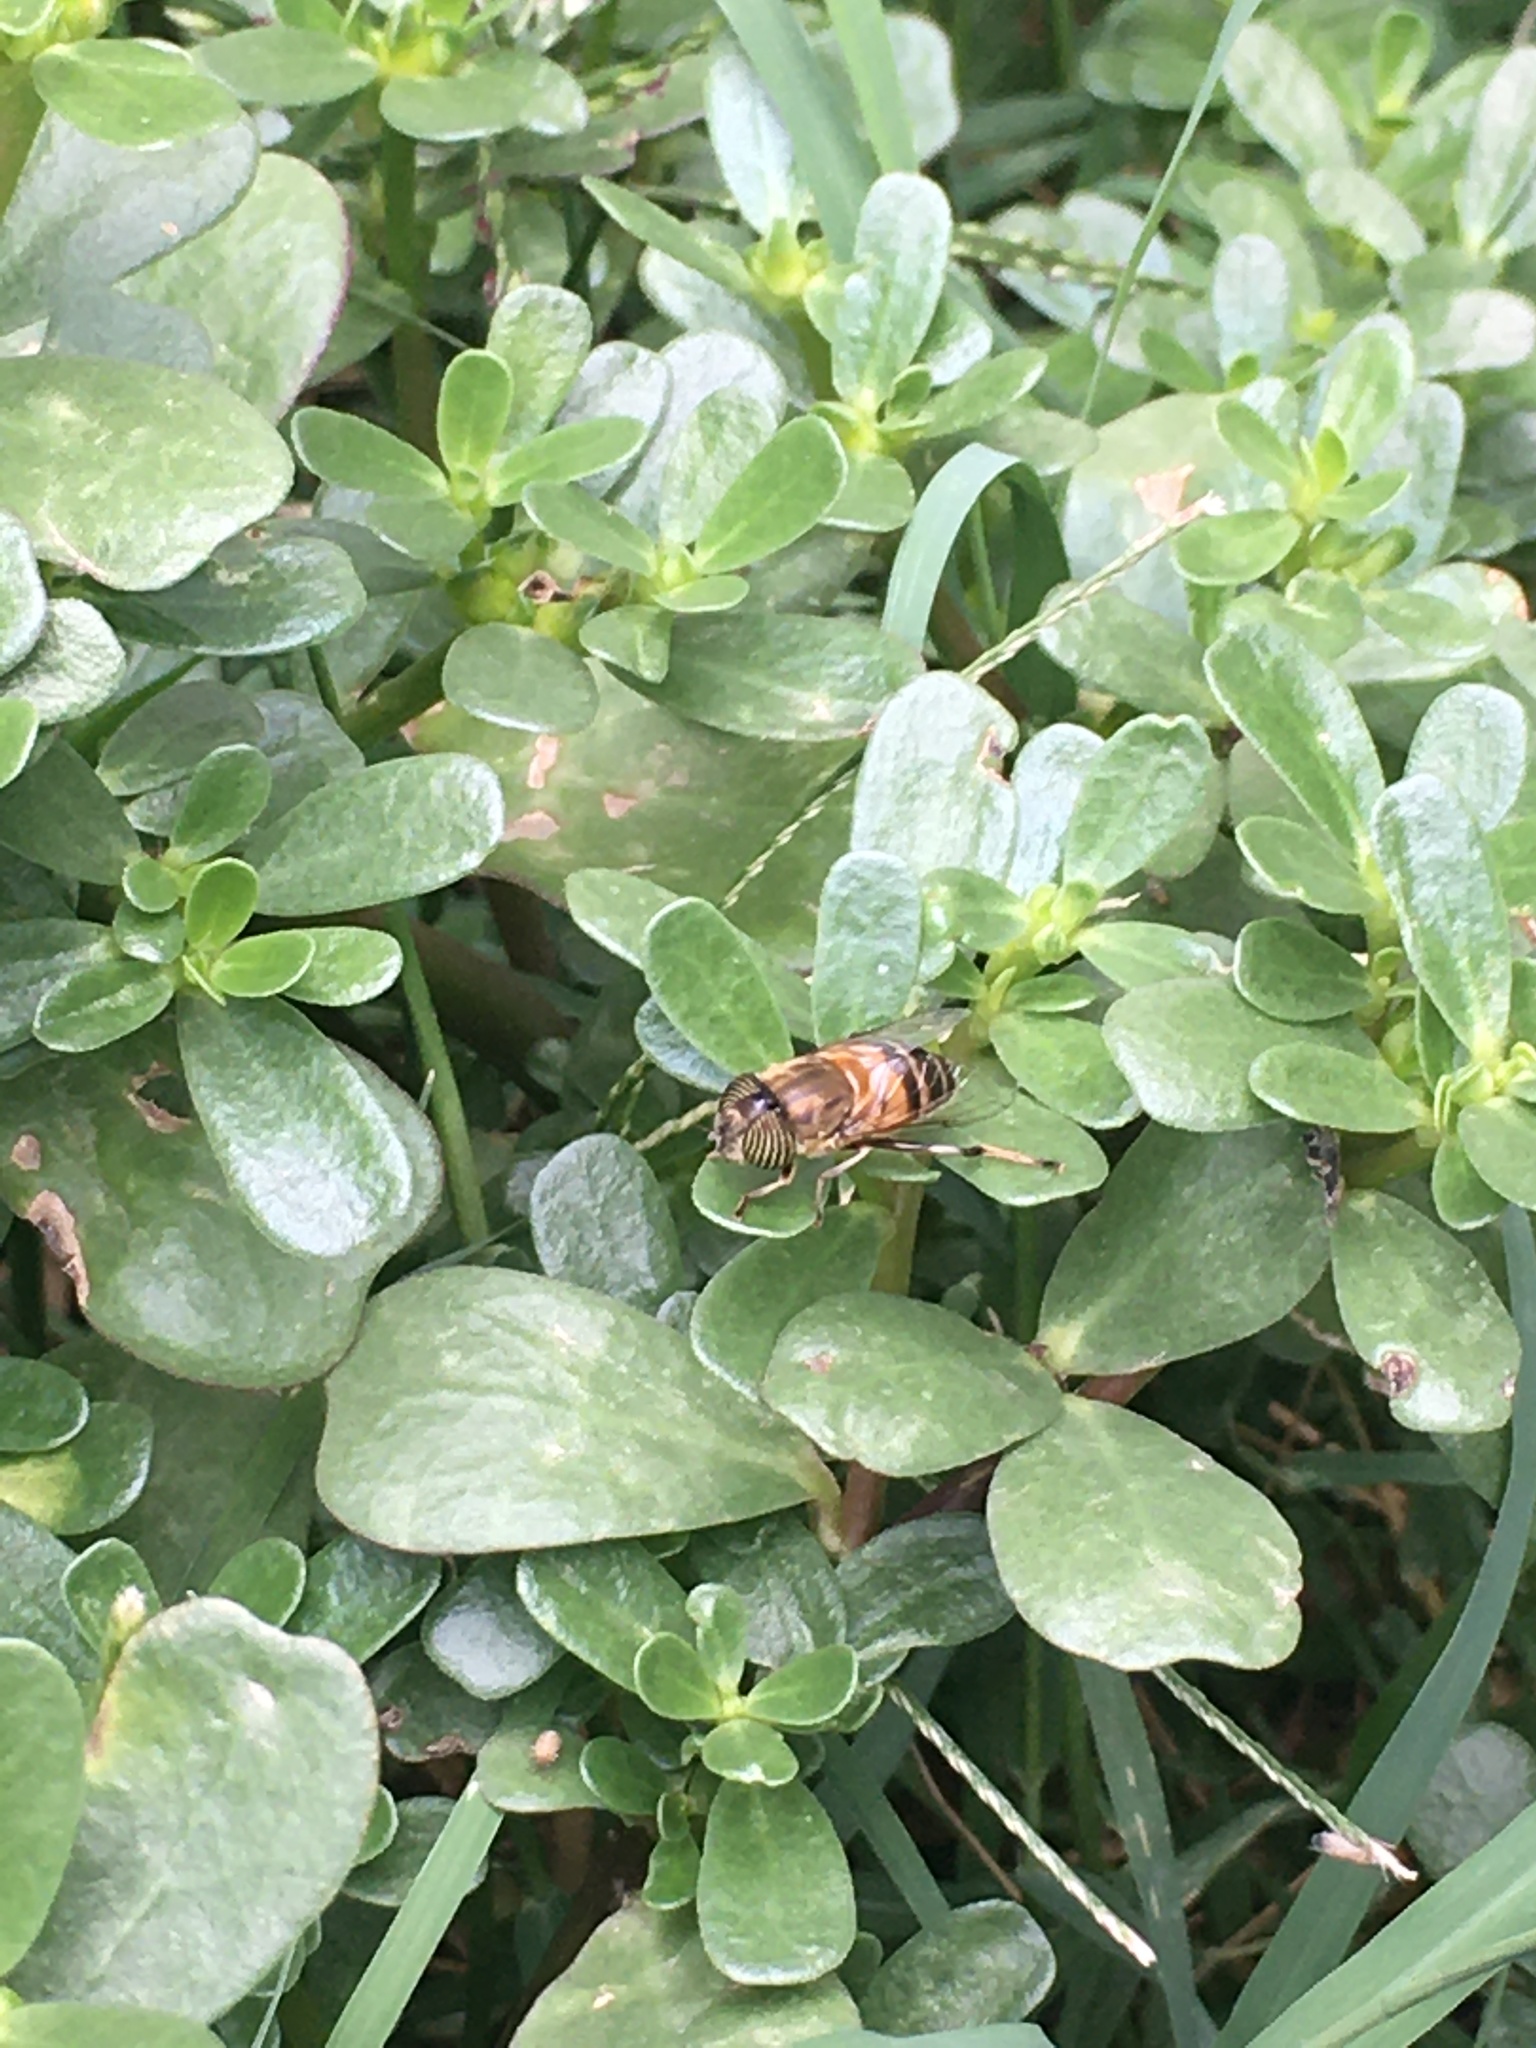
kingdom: Animalia
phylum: Arthropoda
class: Insecta
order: Diptera
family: Syrphidae
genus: Eristalinus
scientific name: Eristalinus taeniops
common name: Syrphid fly
